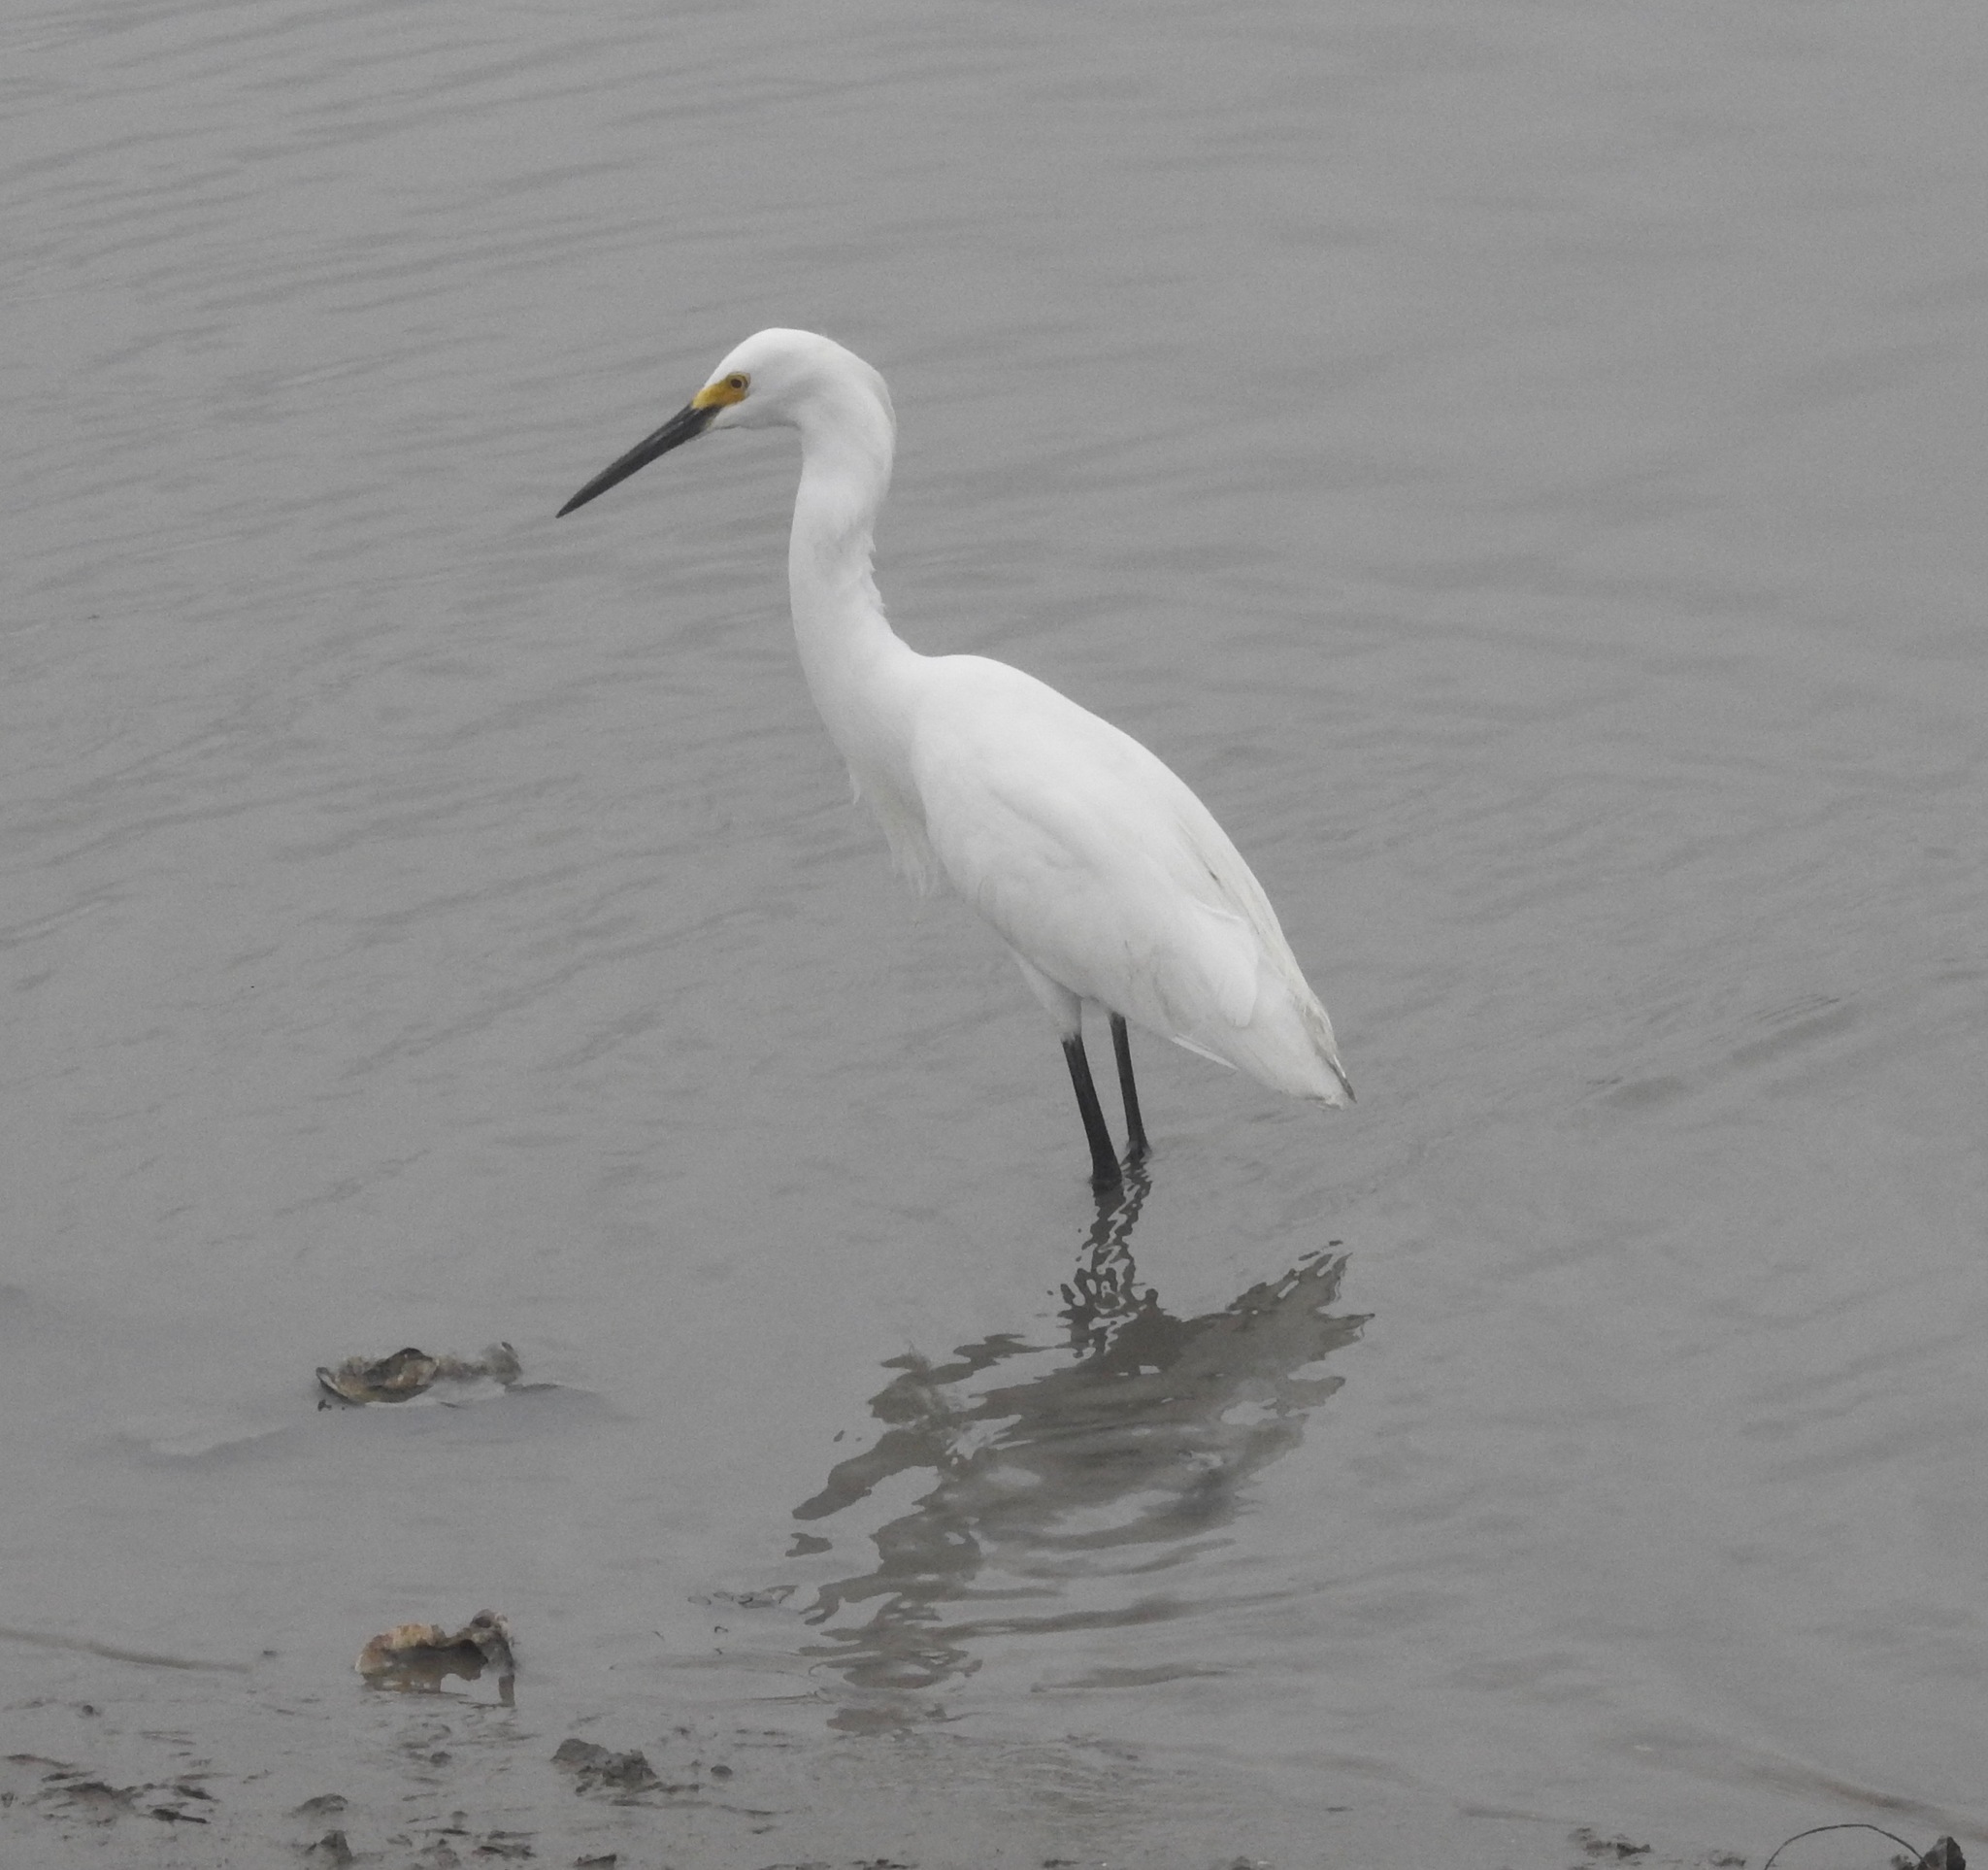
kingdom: Animalia
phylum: Chordata
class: Aves
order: Pelecaniformes
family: Ardeidae
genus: Egretta
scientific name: Egretta thula
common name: Snowy egret
